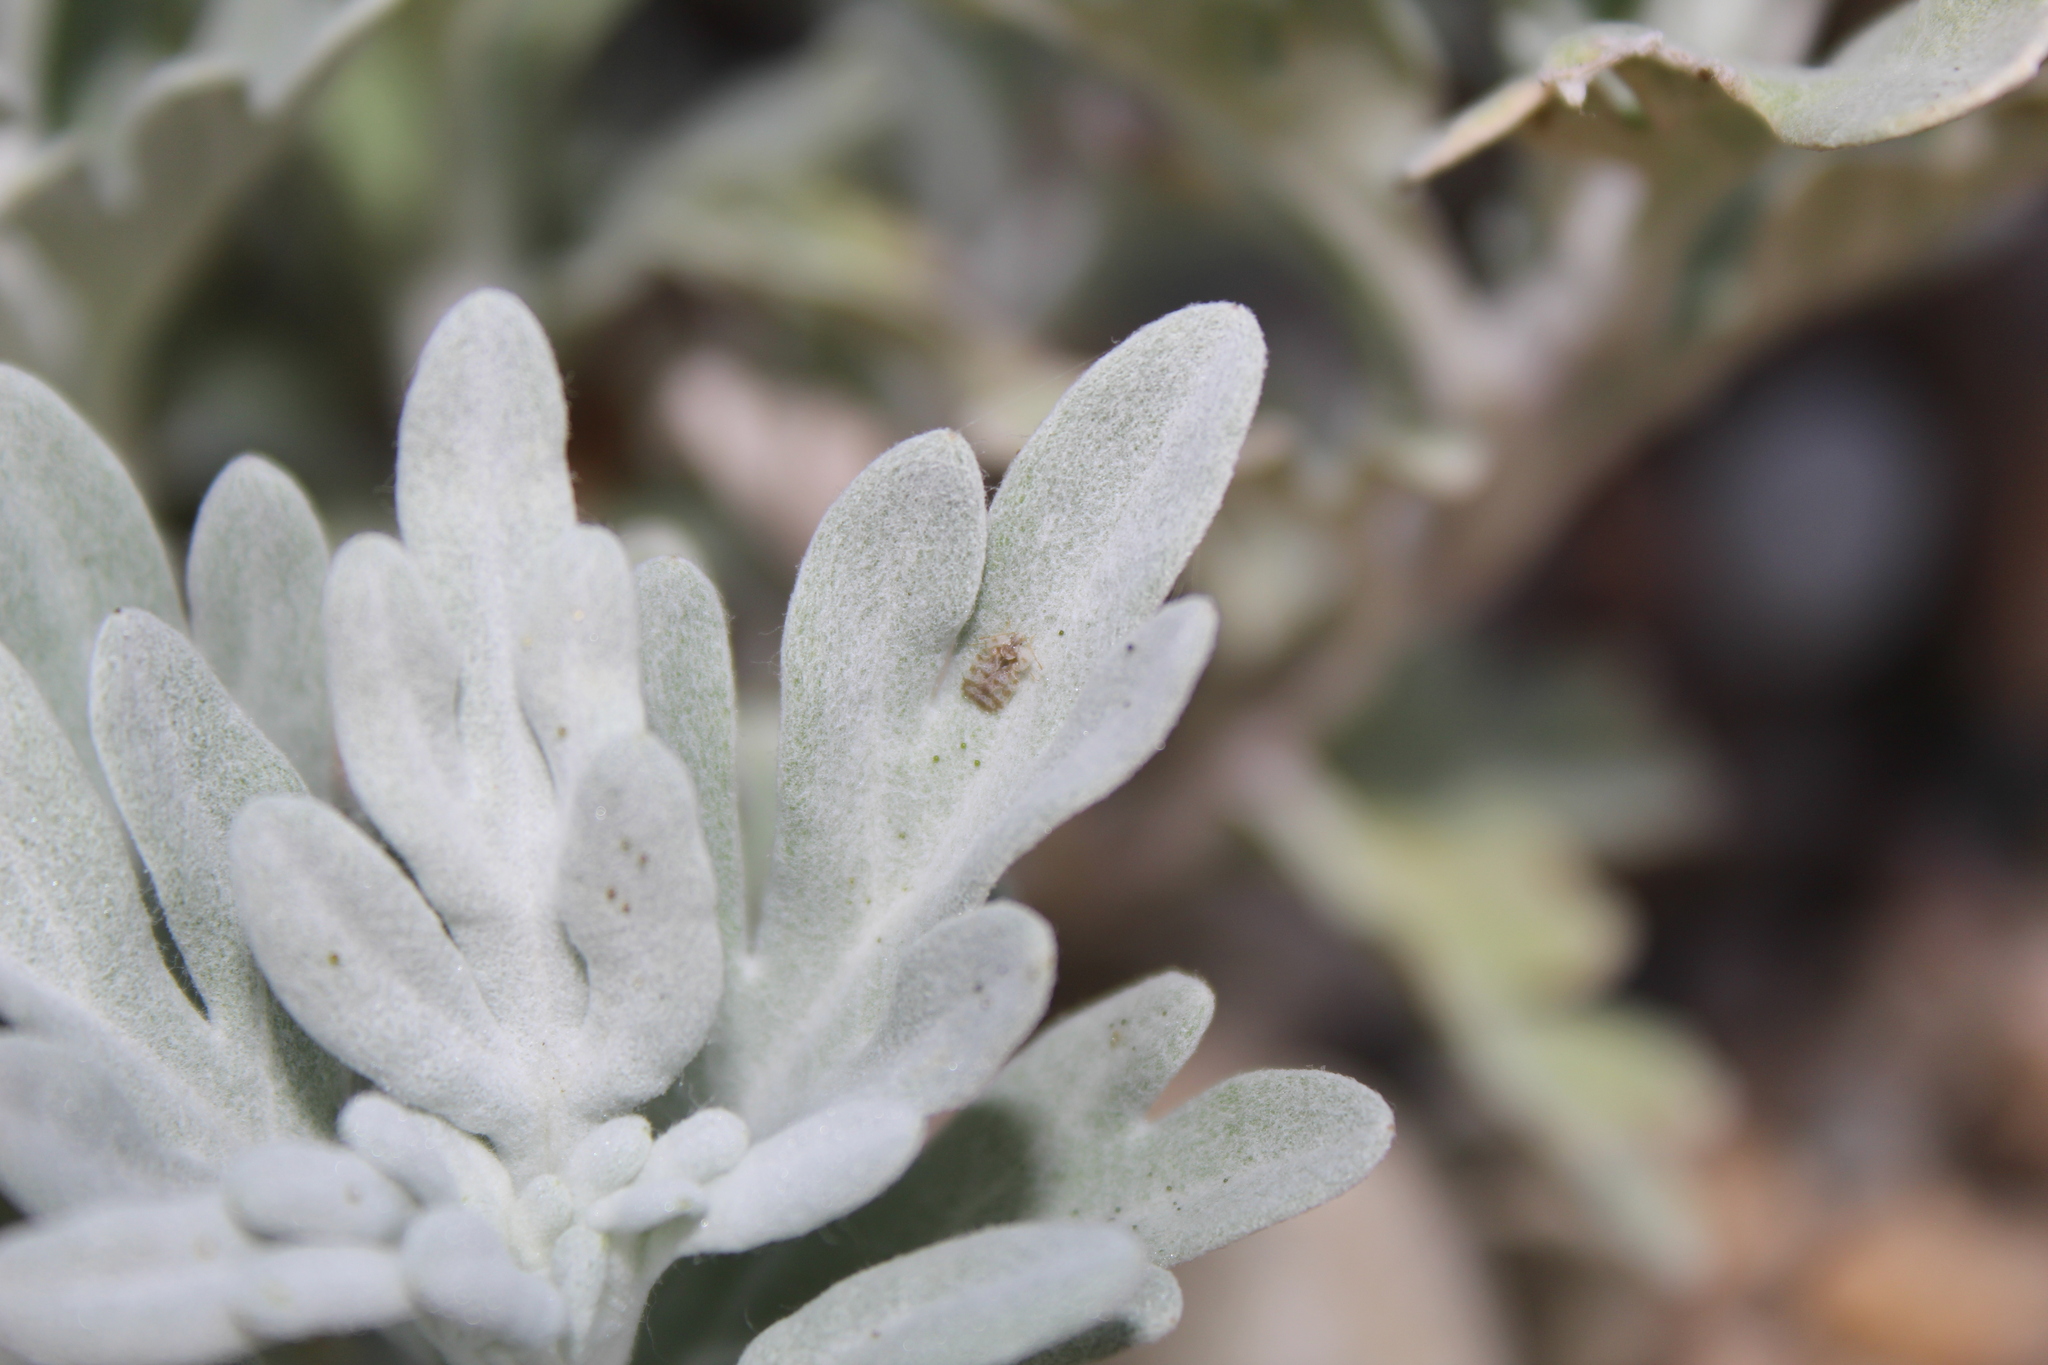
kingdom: Plantae
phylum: Tracheophyta
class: Magnoliopsida
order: Asterales
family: Asteraceae
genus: Artemisia
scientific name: Artemisia stelleriana
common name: Beach wormwood
